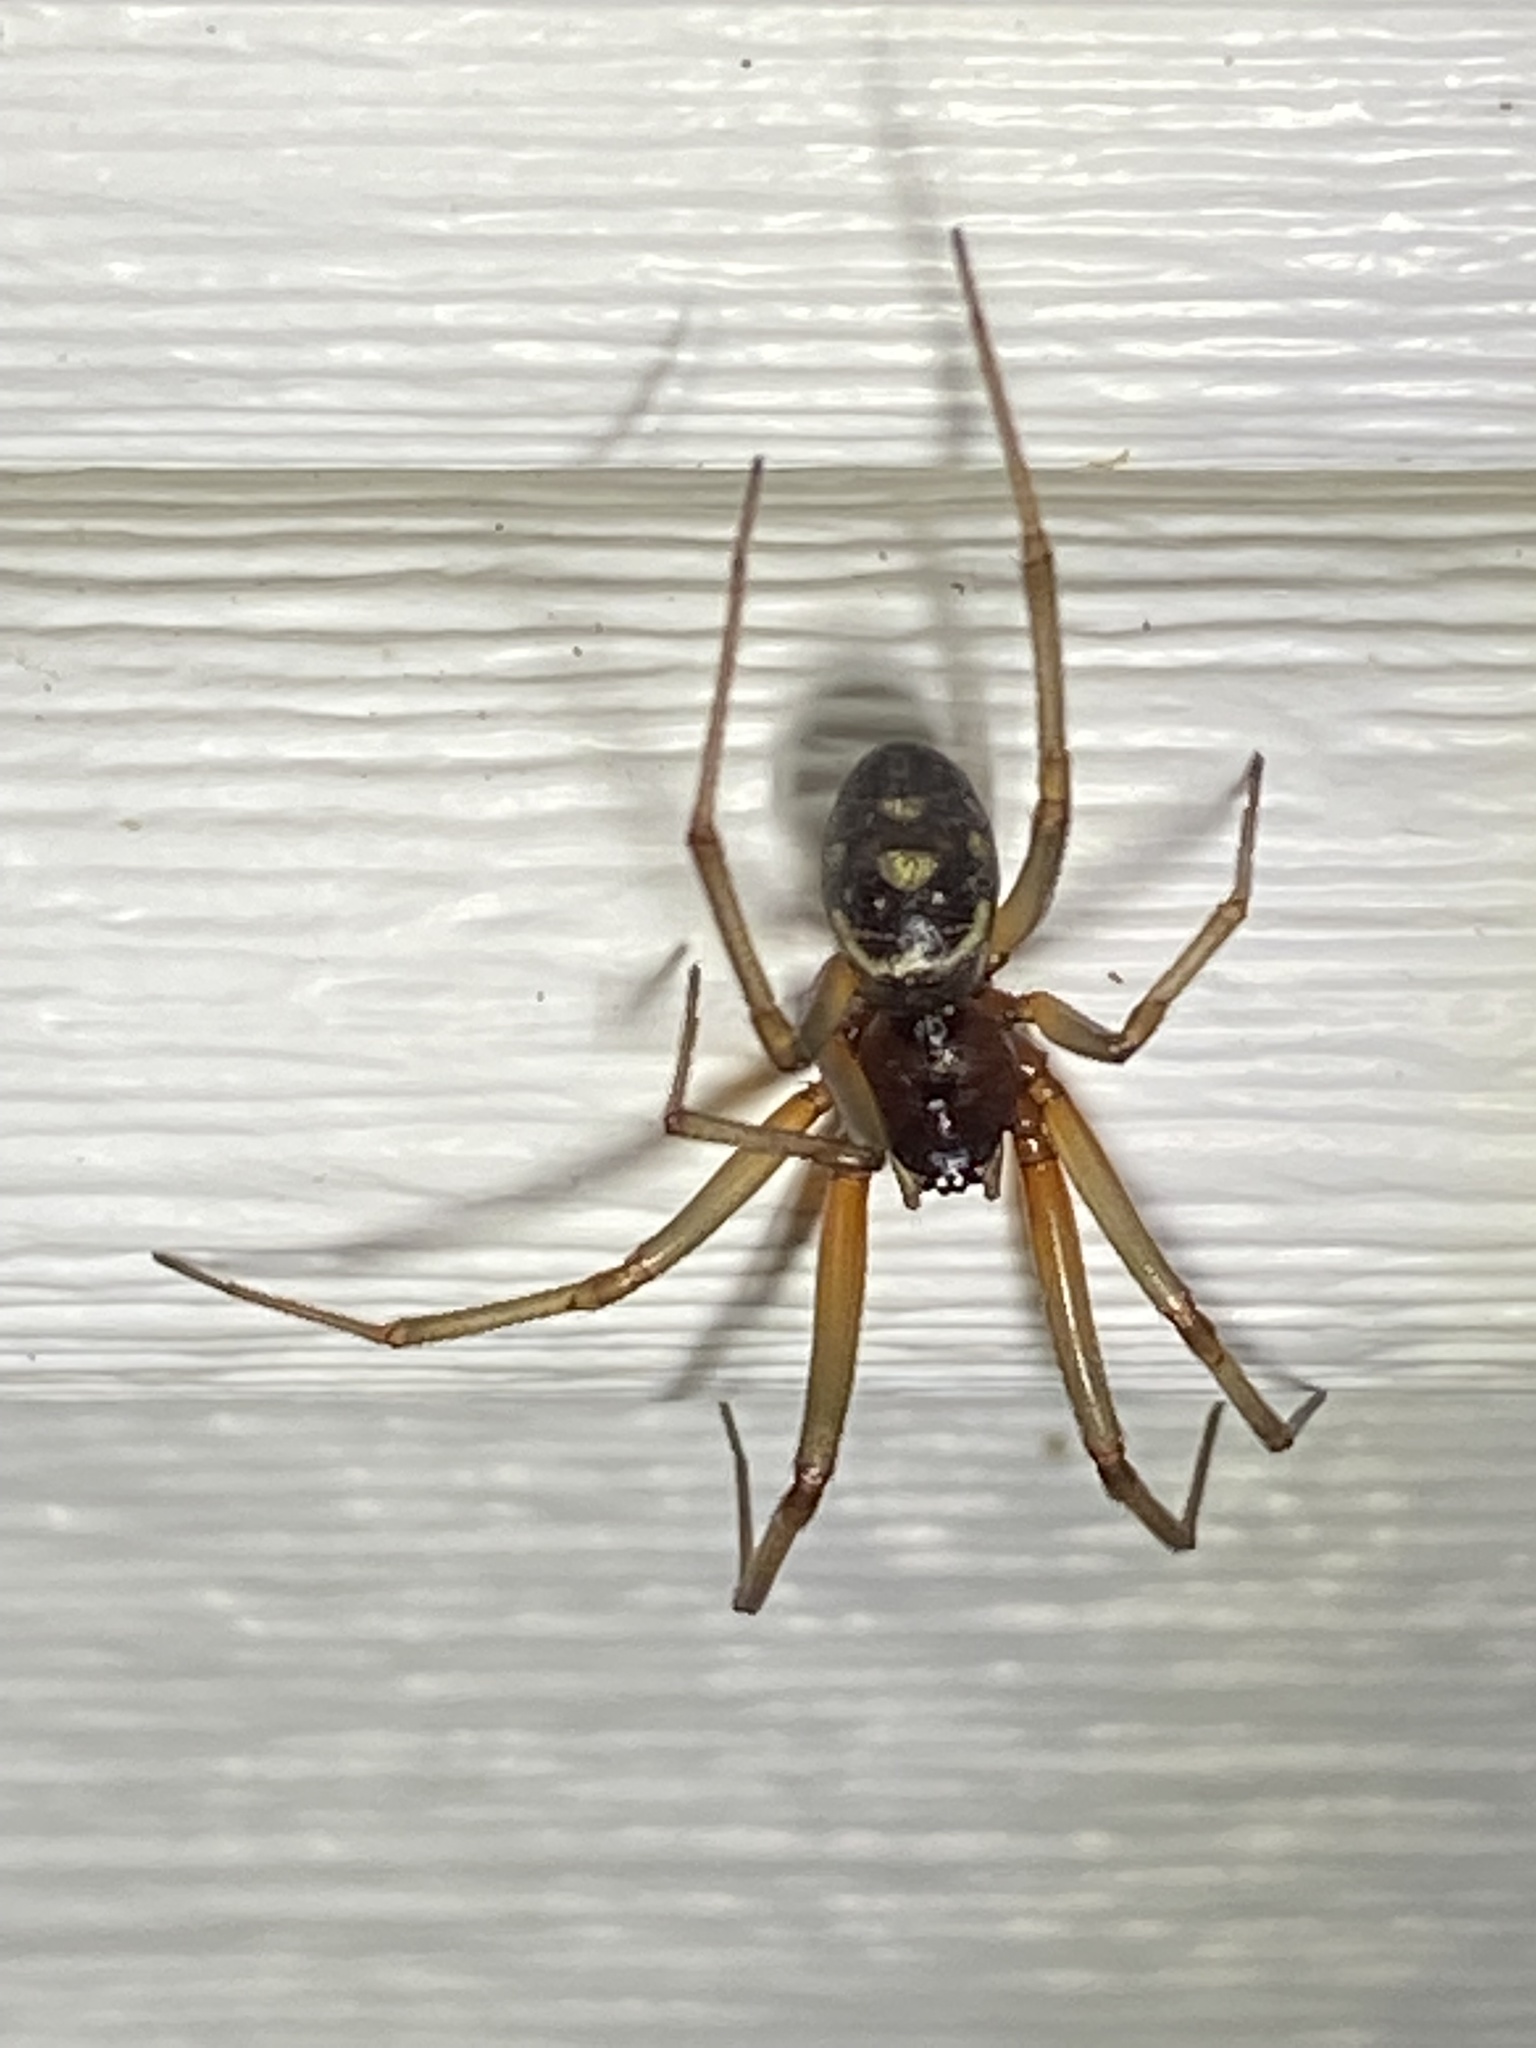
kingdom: Animalia
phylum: Arthropoda
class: Arachnida
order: Araneae
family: Theridiidae
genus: Steatoda
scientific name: Steatoda grossa
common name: False black widow
